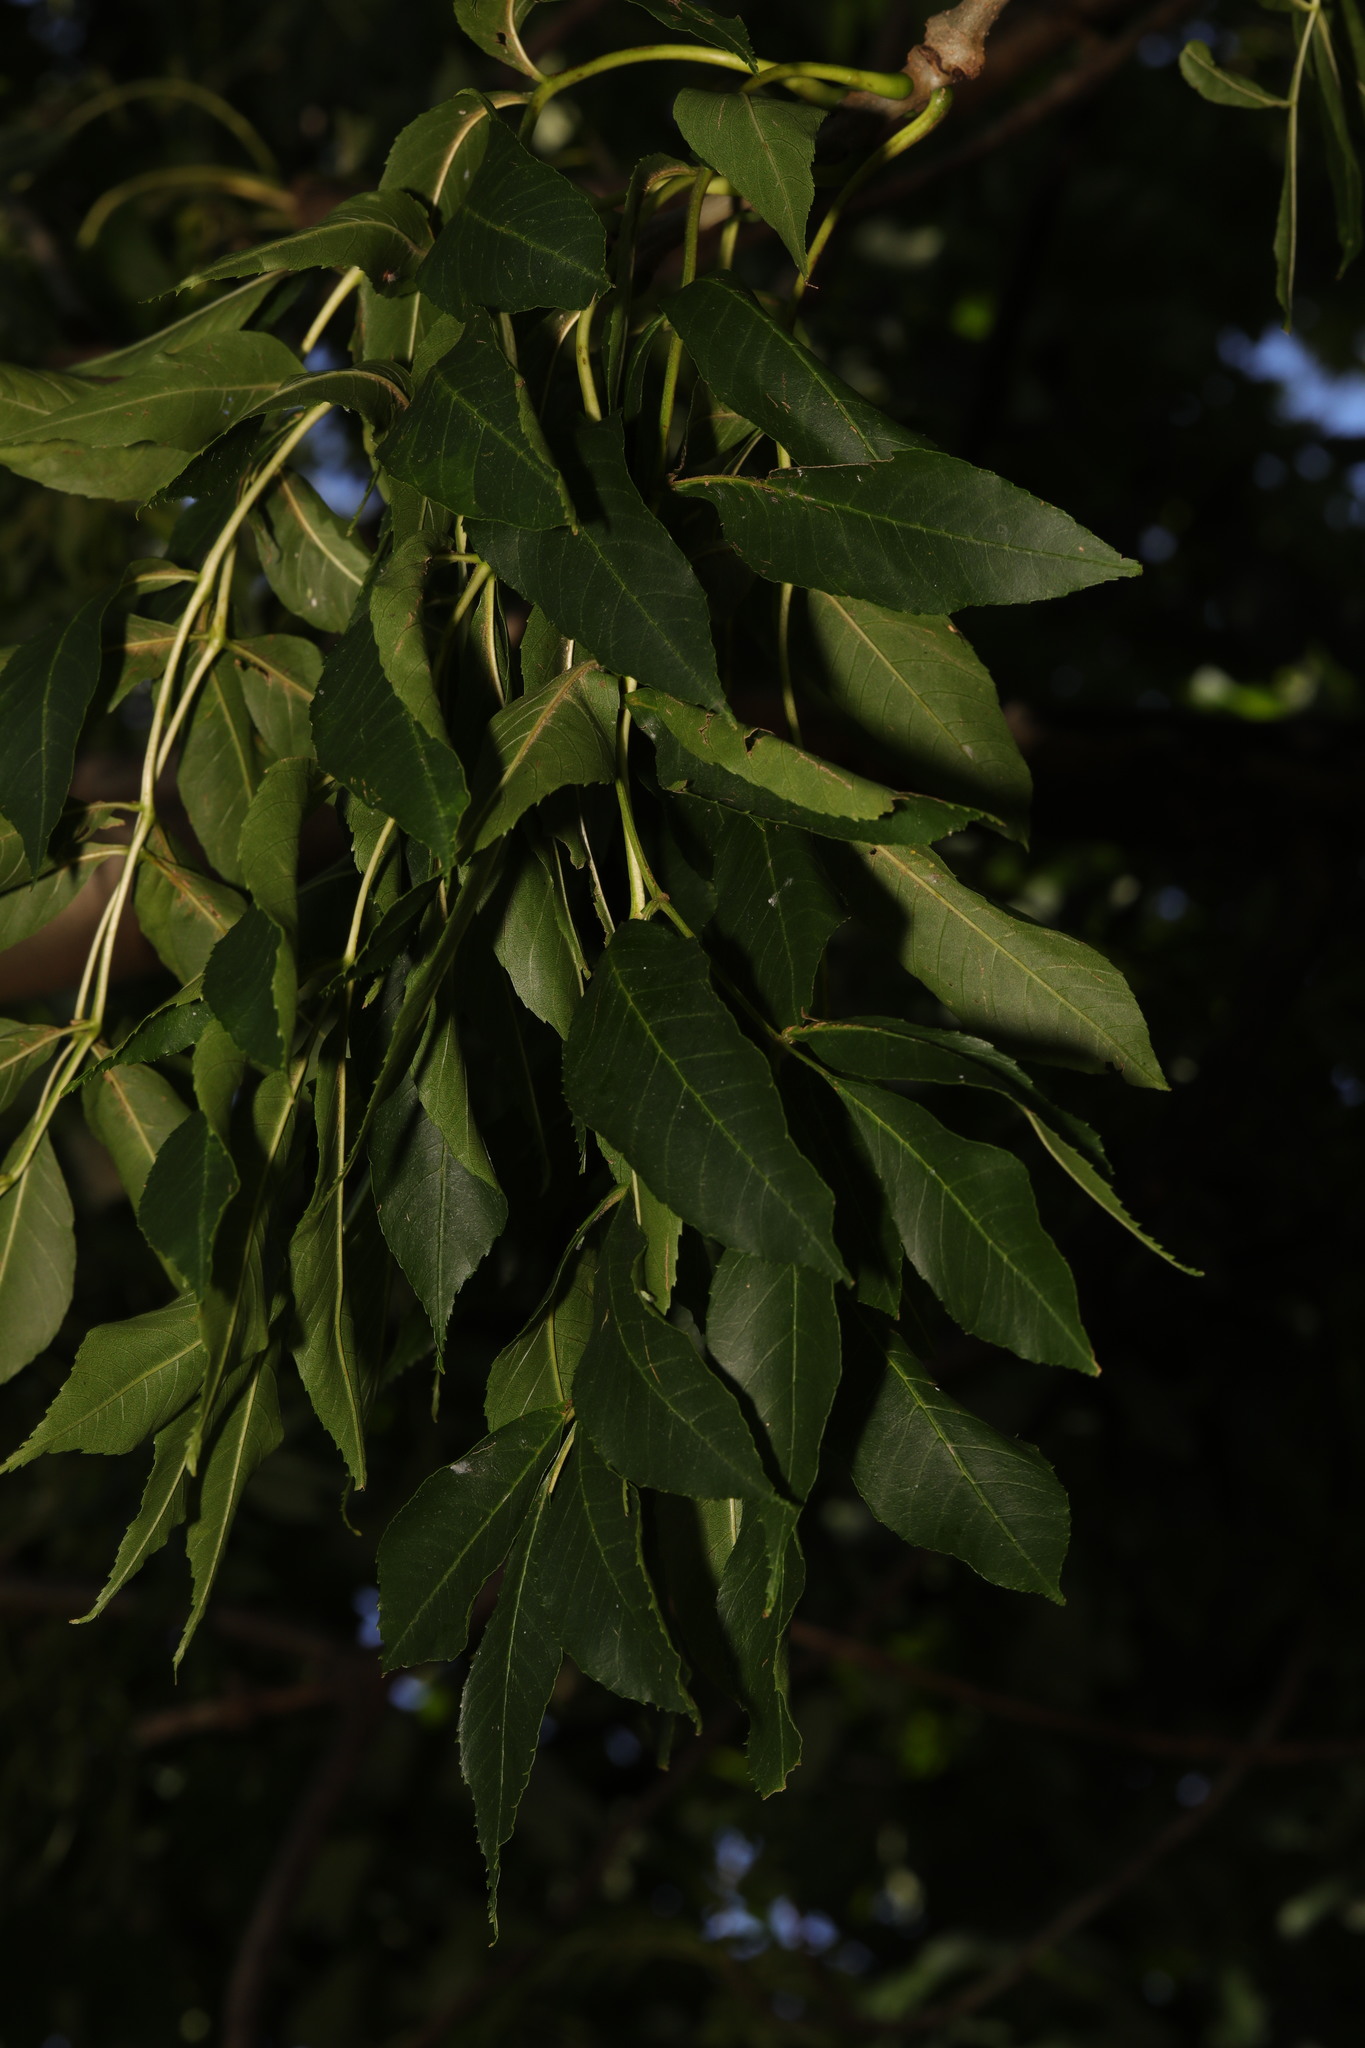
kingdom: Plantae
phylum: Tracheophyta
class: Magnoliopsida
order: Lamiales
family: Oleaceae
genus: Fraxinus
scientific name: Fraxinus excelsior
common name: European ash
